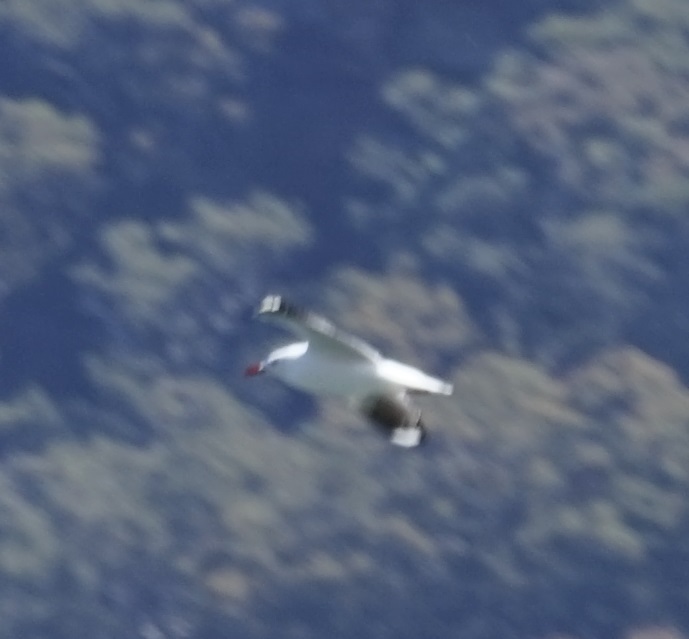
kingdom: Animalia
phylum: Chordata
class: Aves
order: Charadriiformes
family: Laridae
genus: Chroicocephalus
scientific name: Chroicocephalus novaehollandiae
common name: Silver gull
